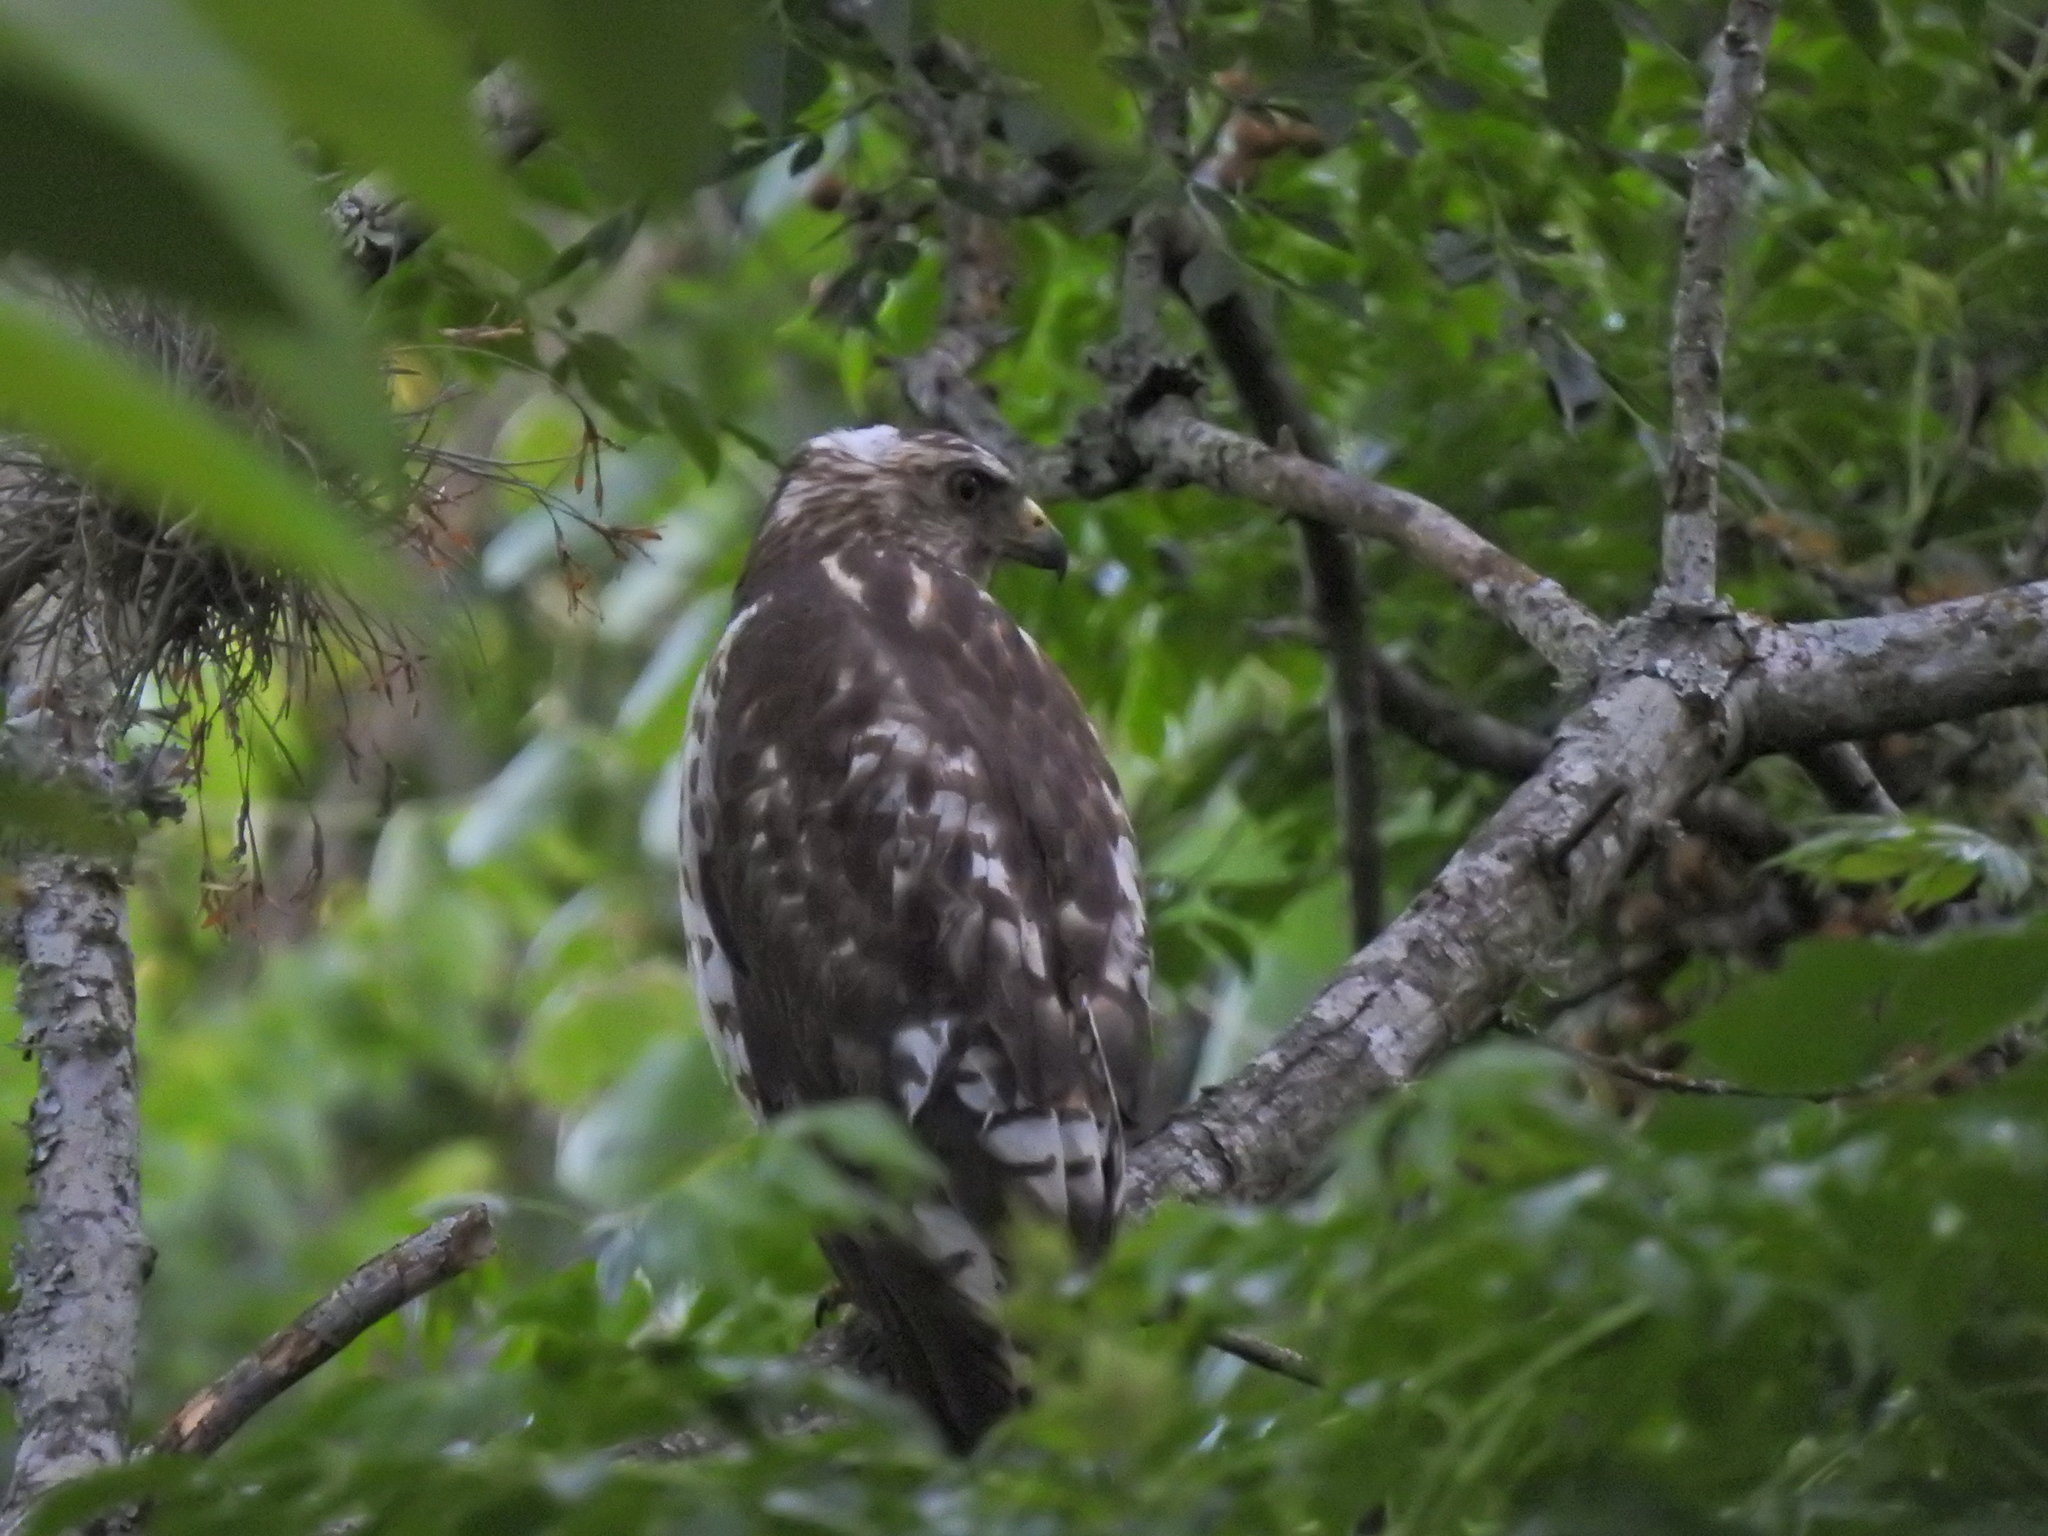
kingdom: Animalia
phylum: Chordata
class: Aves
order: Accipitriformes
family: Accipitridae
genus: Buteo
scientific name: Buteo platypterus
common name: Broad-winged hawk
